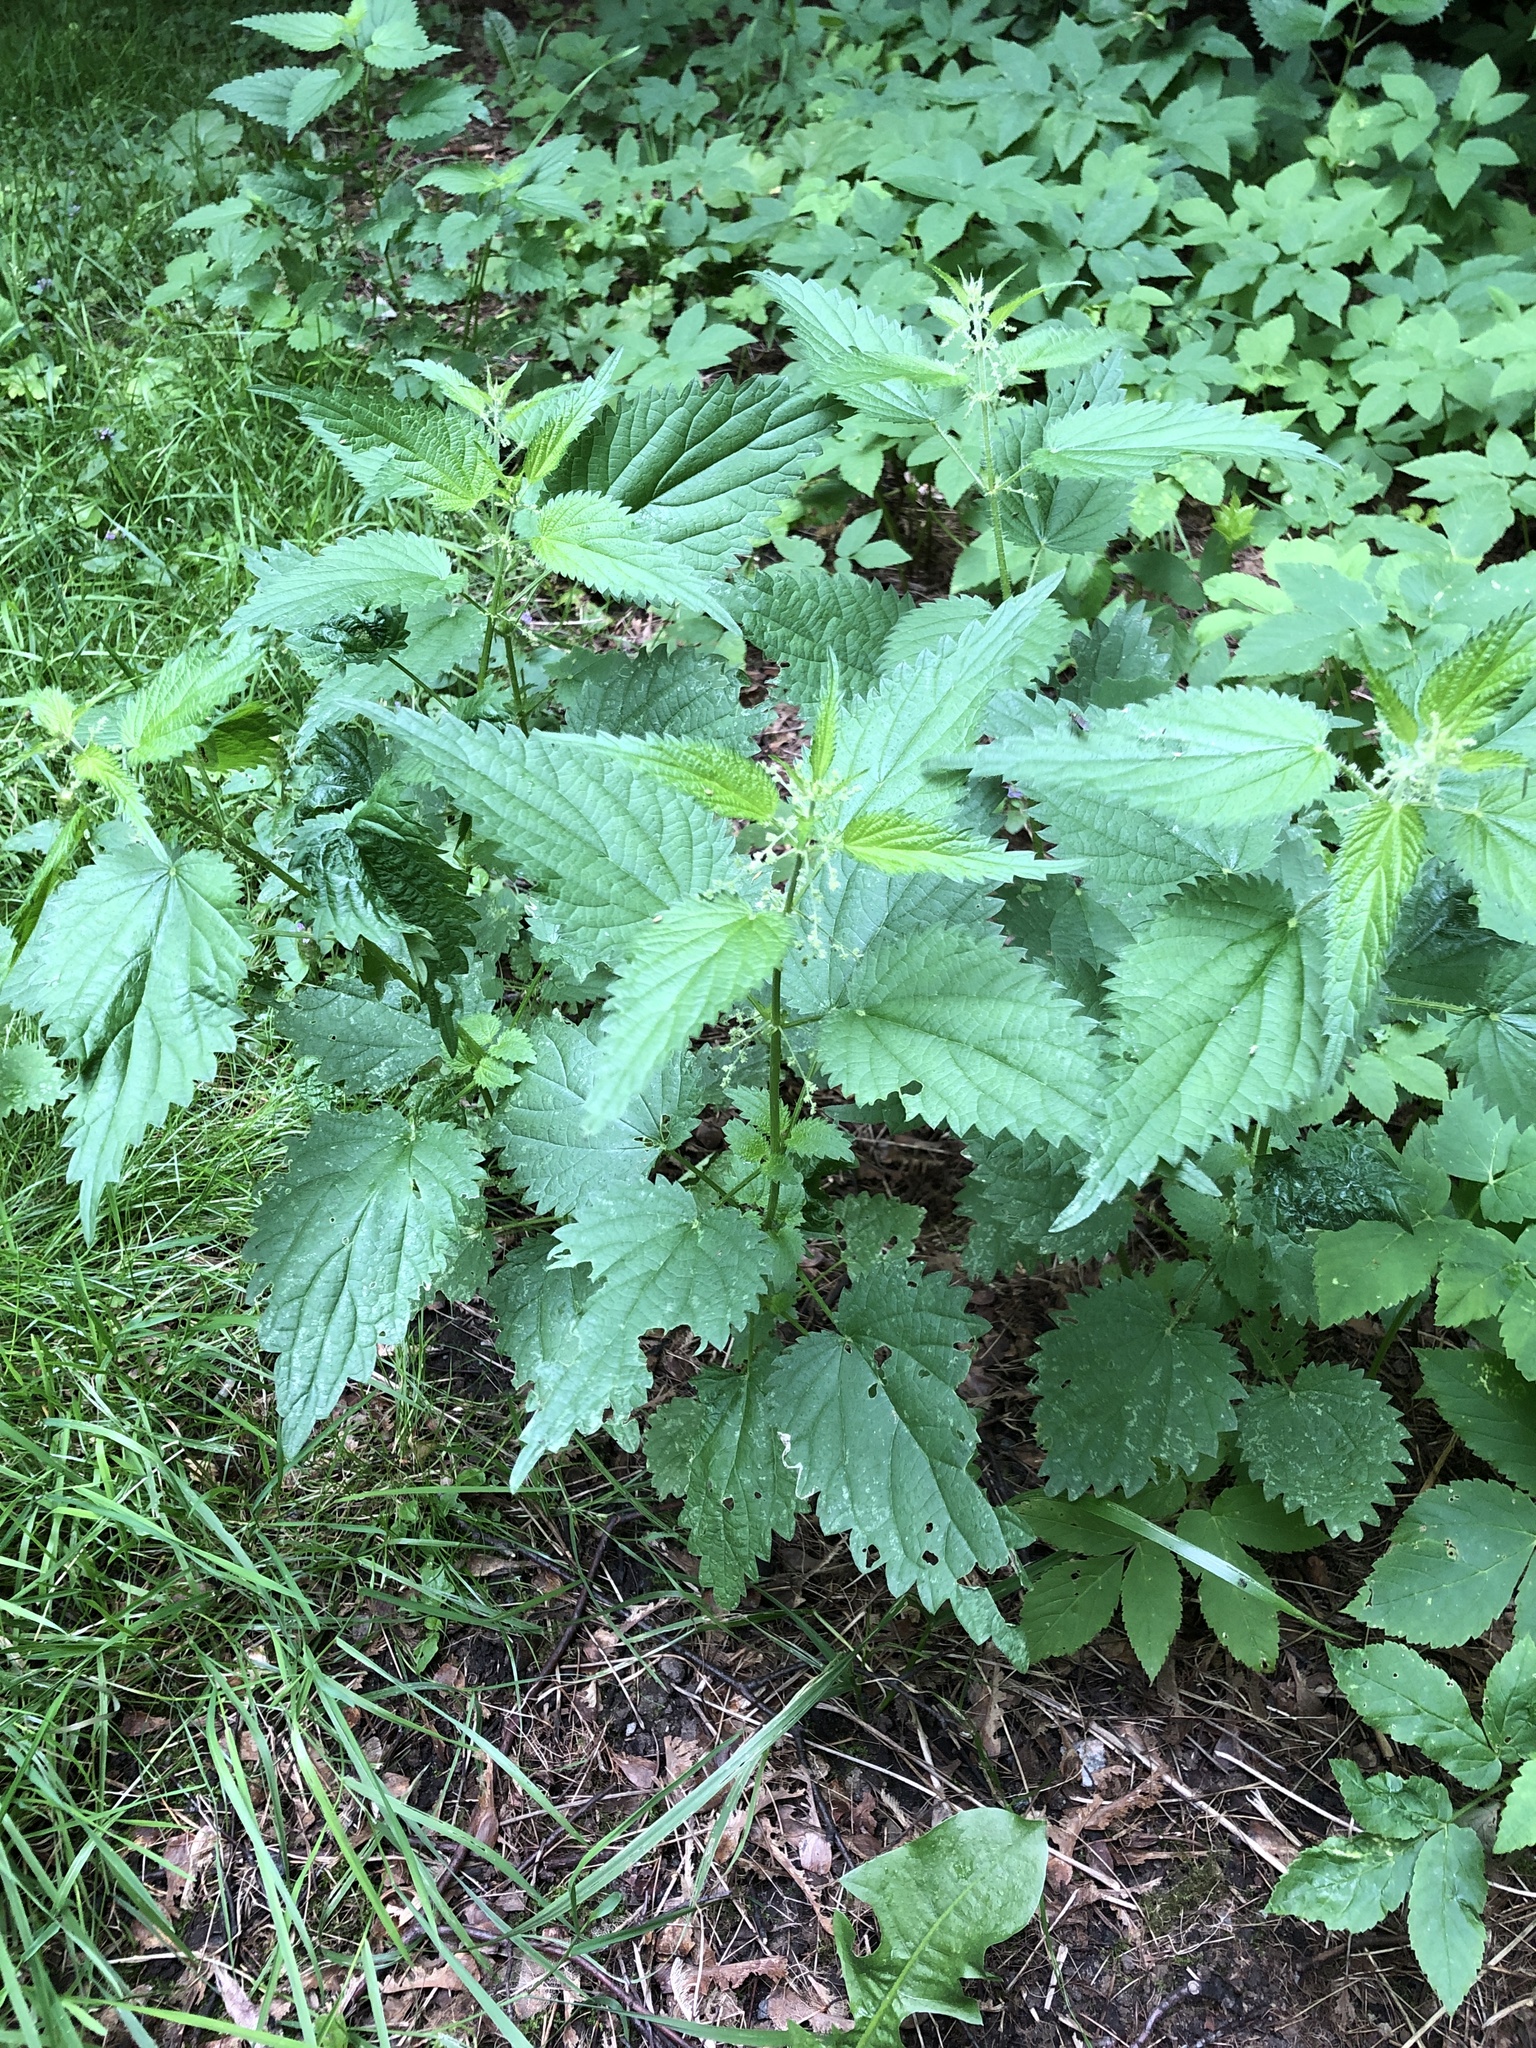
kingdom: Plantae
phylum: Tracheophyta
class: Magnoliopsida
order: Rosales
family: Urticaceae
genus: Urtica
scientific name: Urtica dioica
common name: Common nettle
